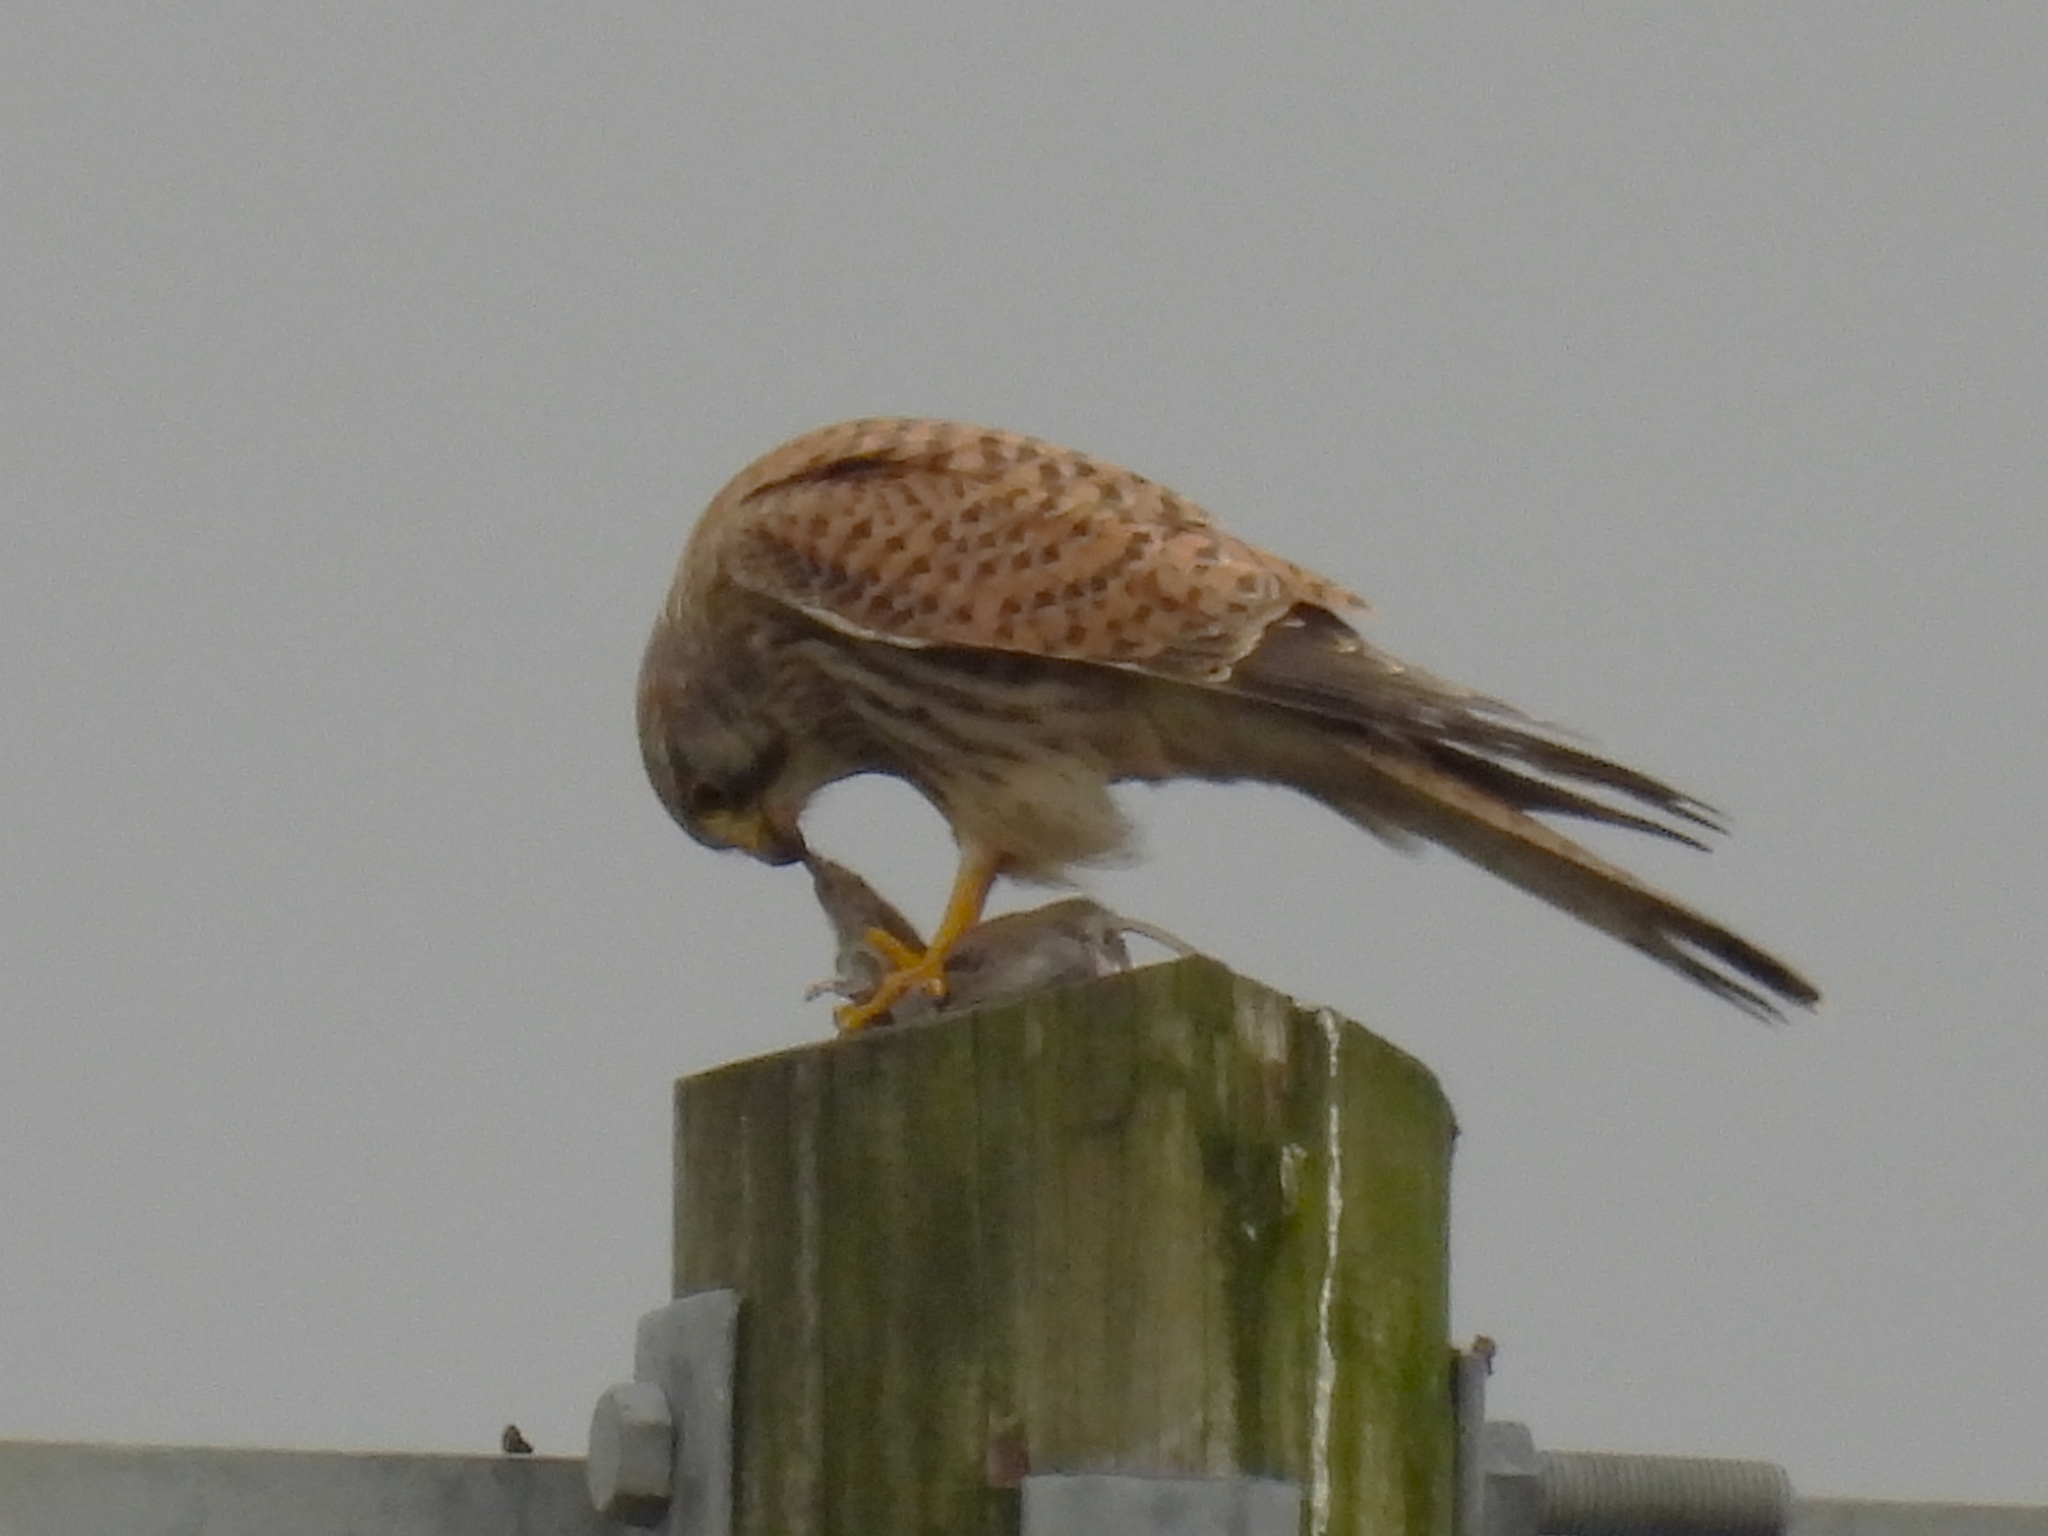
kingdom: Animalia
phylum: Chordata
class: Aves
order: Falconiformes
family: Falconidae
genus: Falco
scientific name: Falco tinnunculus
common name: Common kestrel
